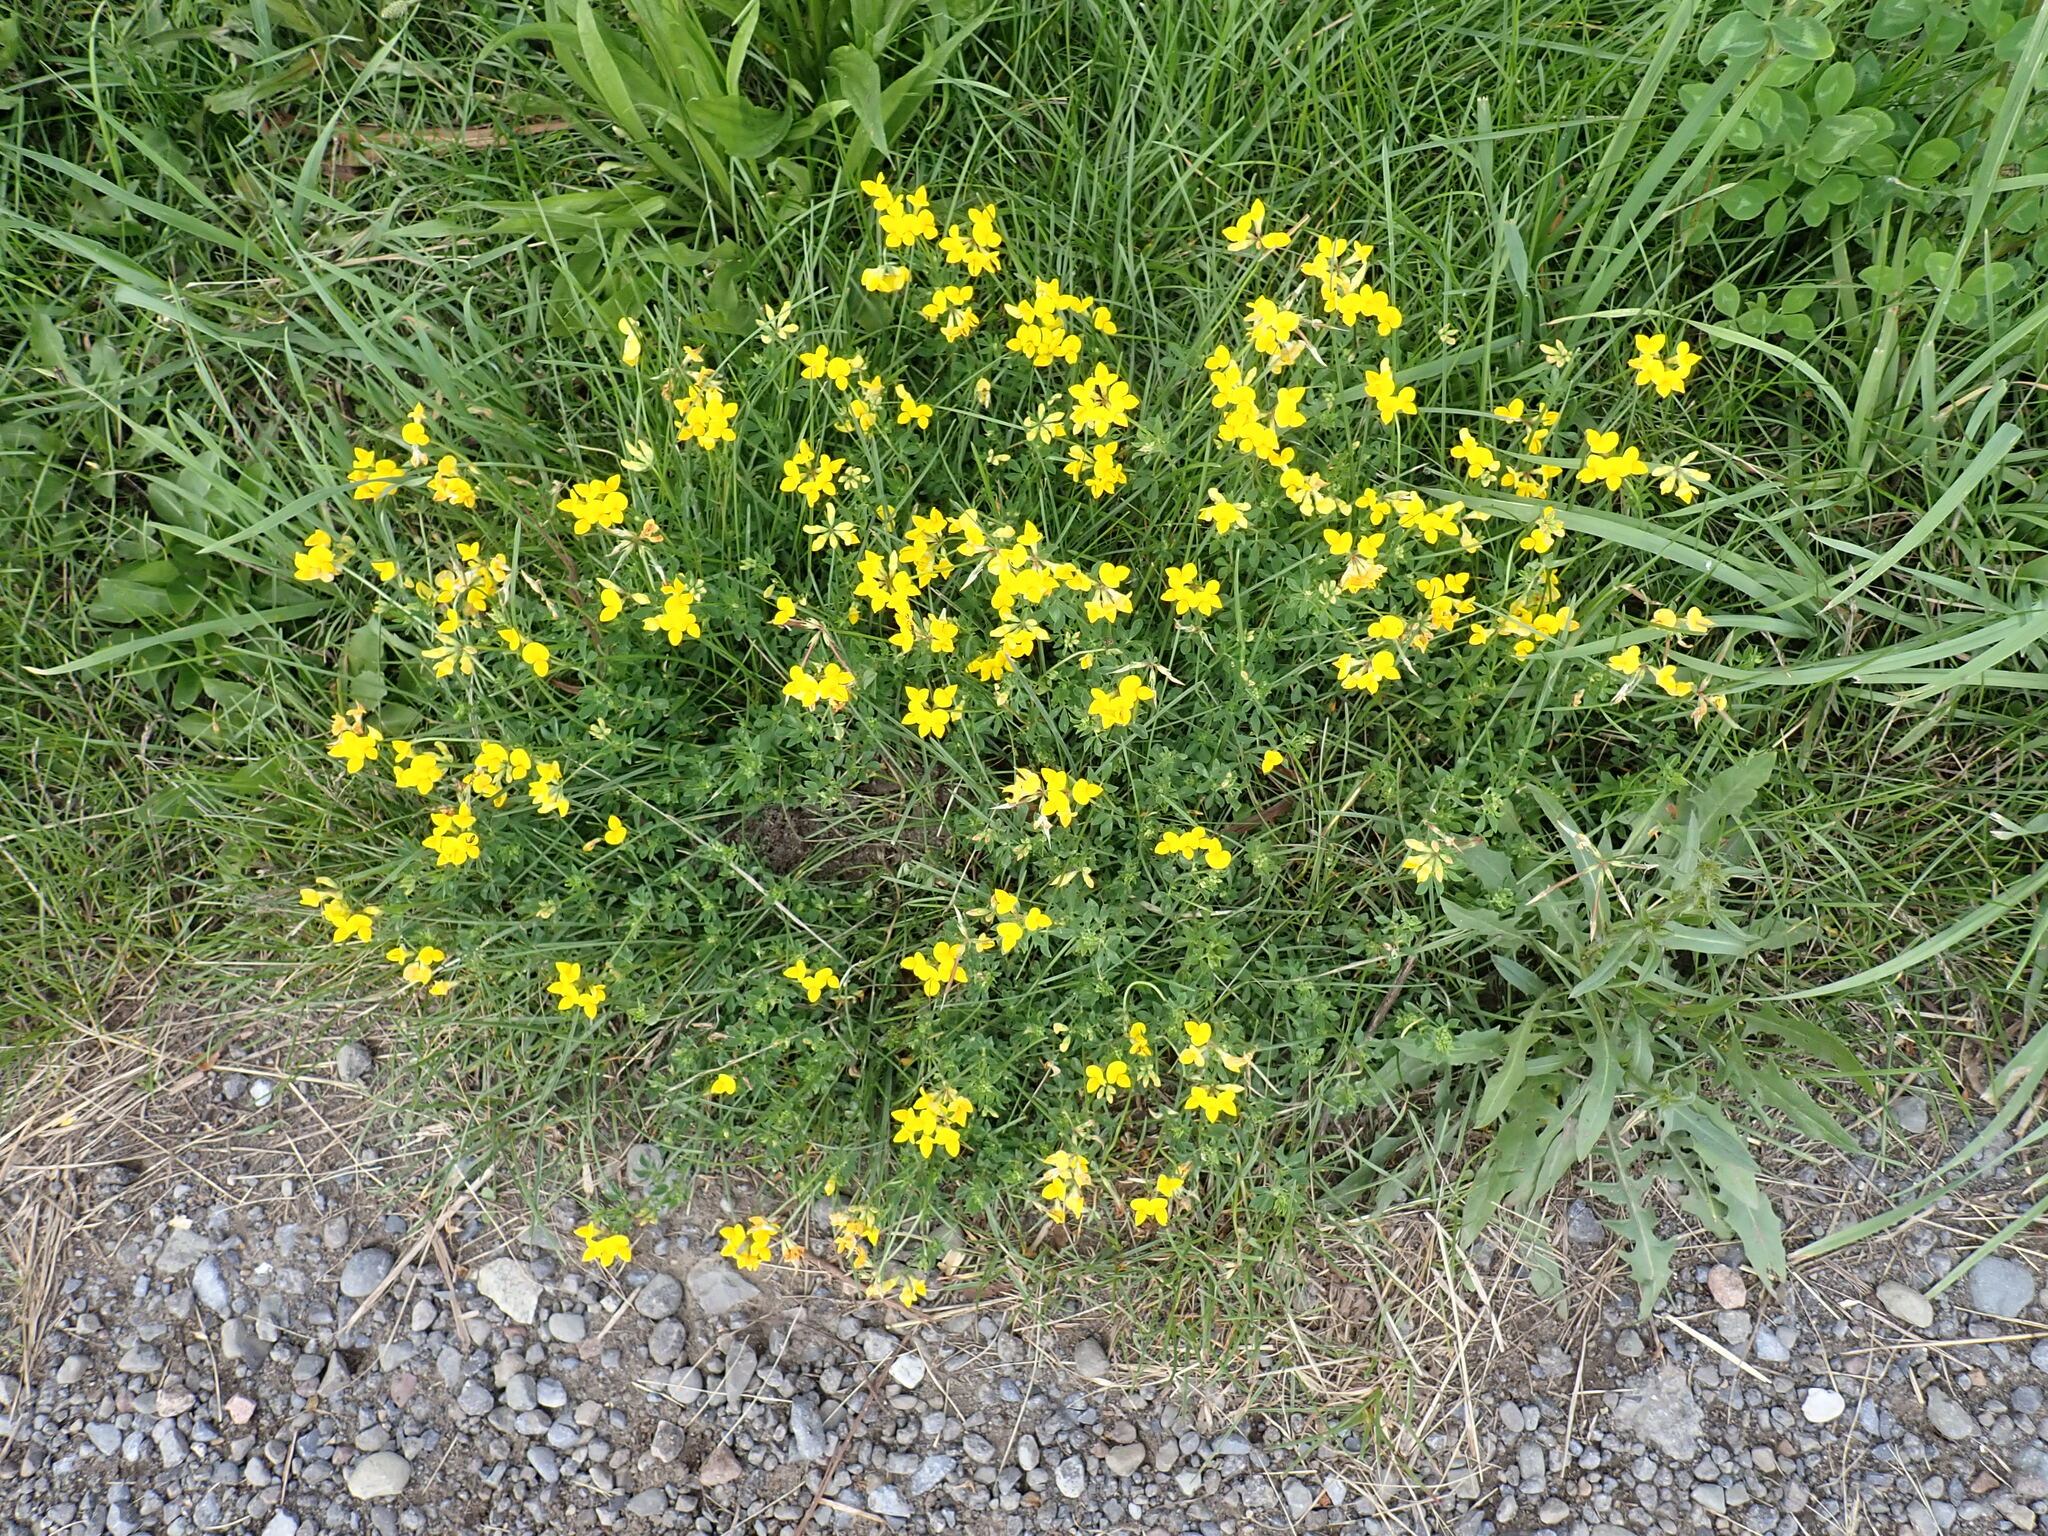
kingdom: Plantae
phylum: Tracheophyta
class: Magnoliopsida
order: Fabales
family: Fabaceae
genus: Lotus
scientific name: Lotus corniculatus
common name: Common bird's-foot-trefoil
